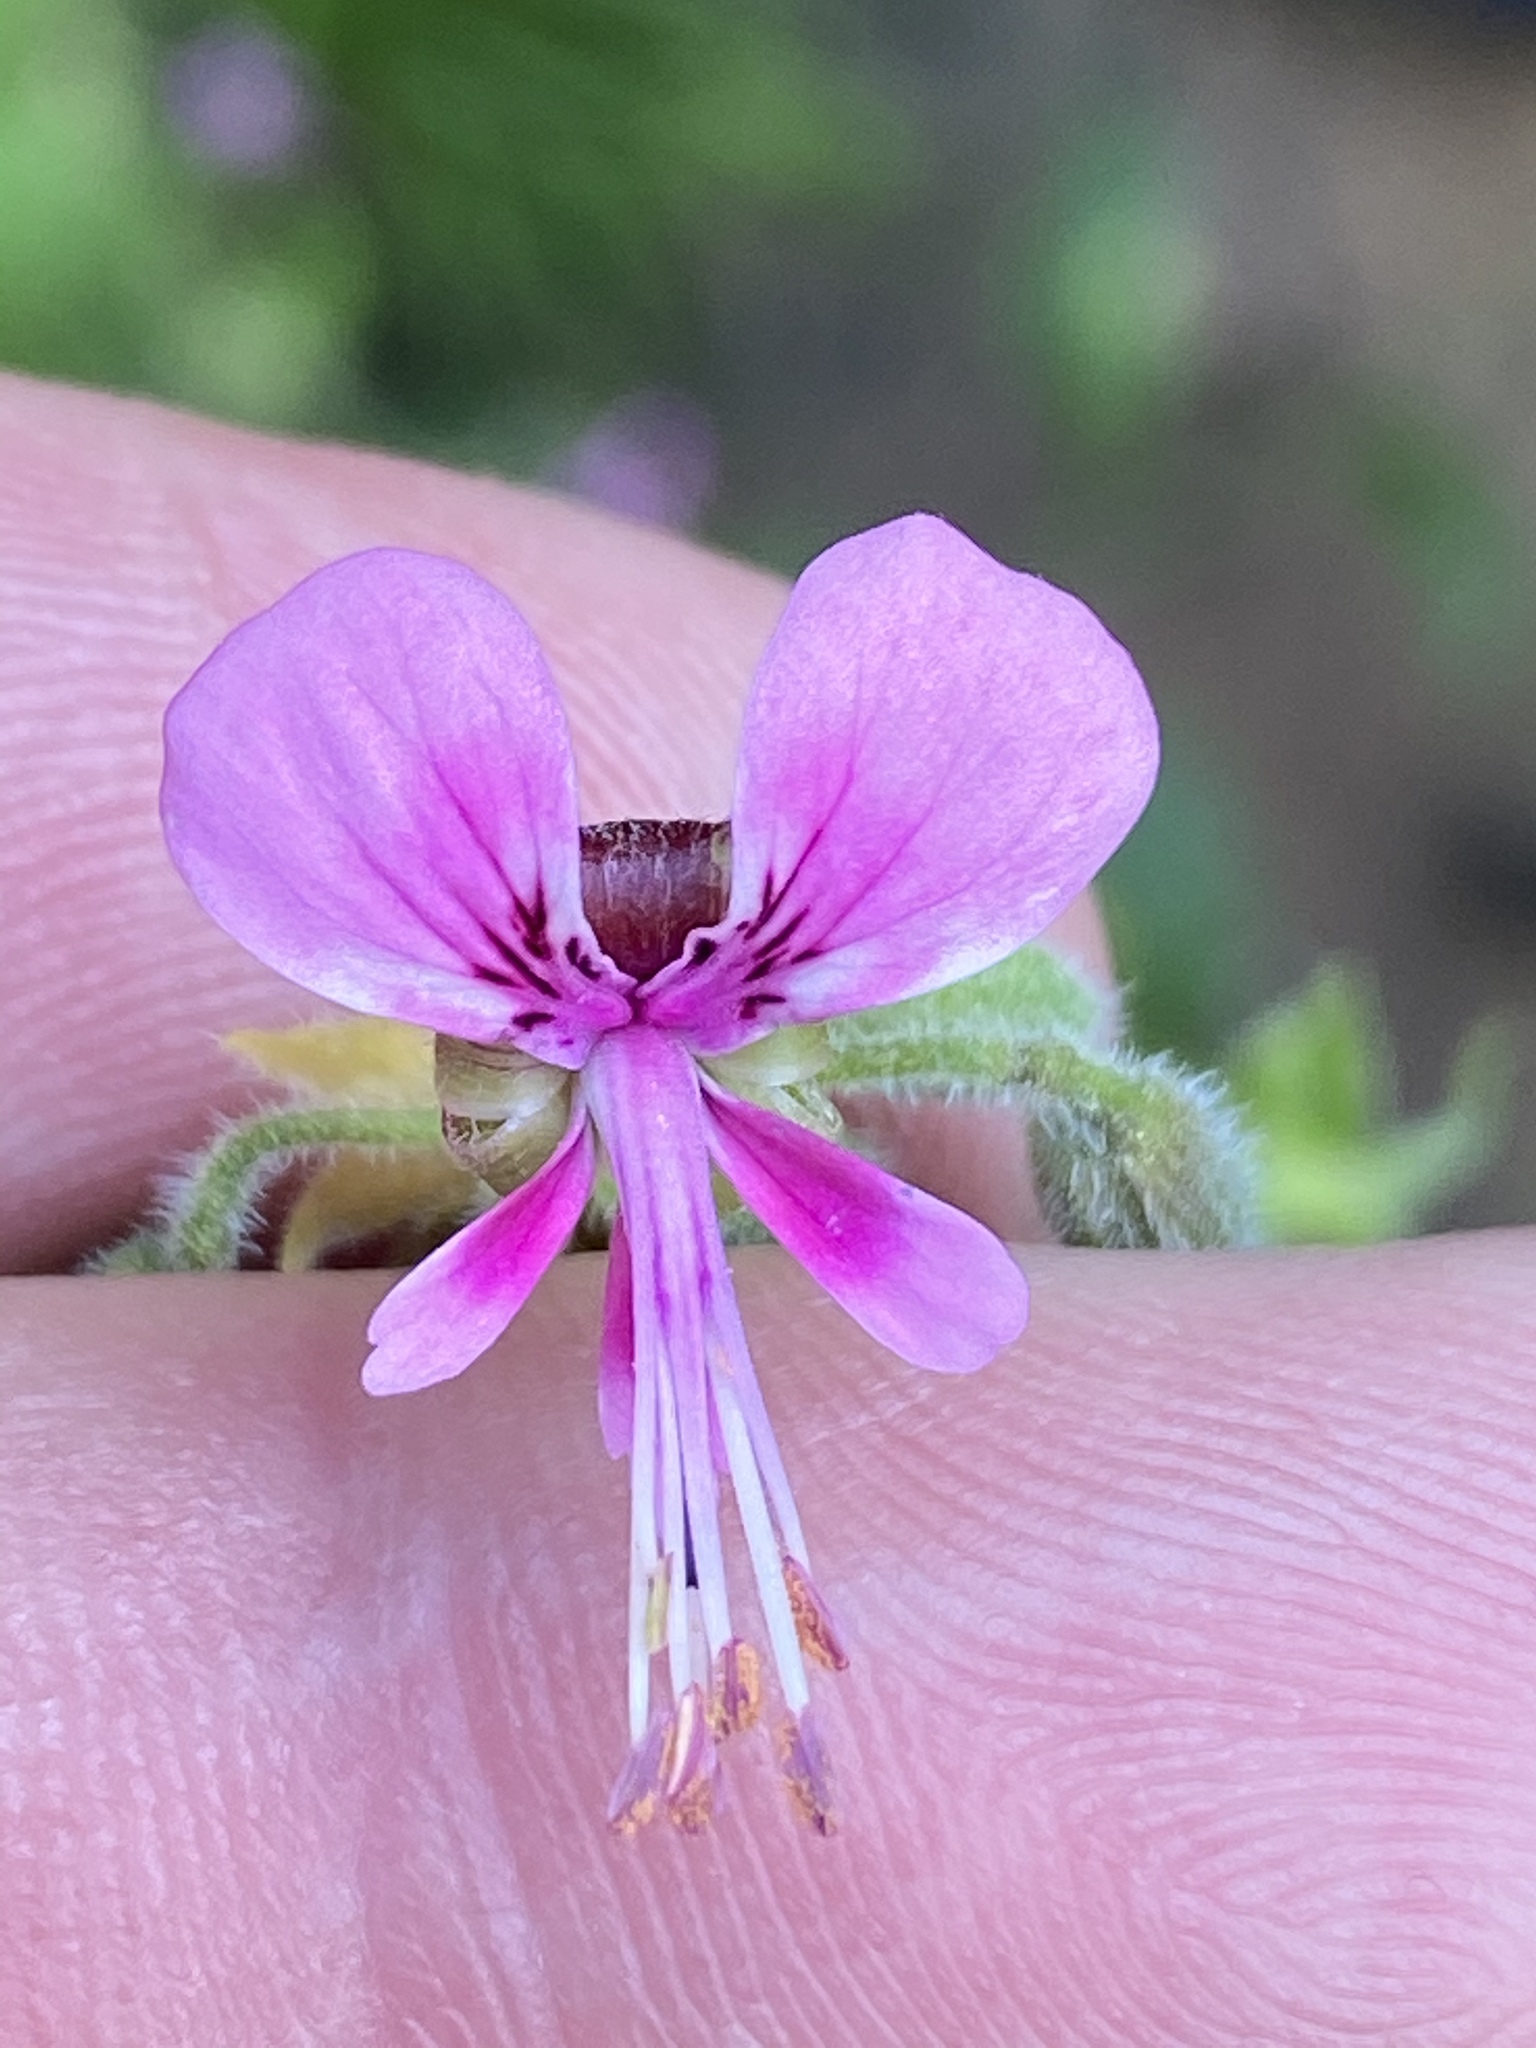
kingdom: Plantae
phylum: Tracheophyta
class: Magnoliopsida
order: Geraniales
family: Geraniaceae
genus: Pelargonium
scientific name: Pelargonium hispidum
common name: Hispid pelargonium
